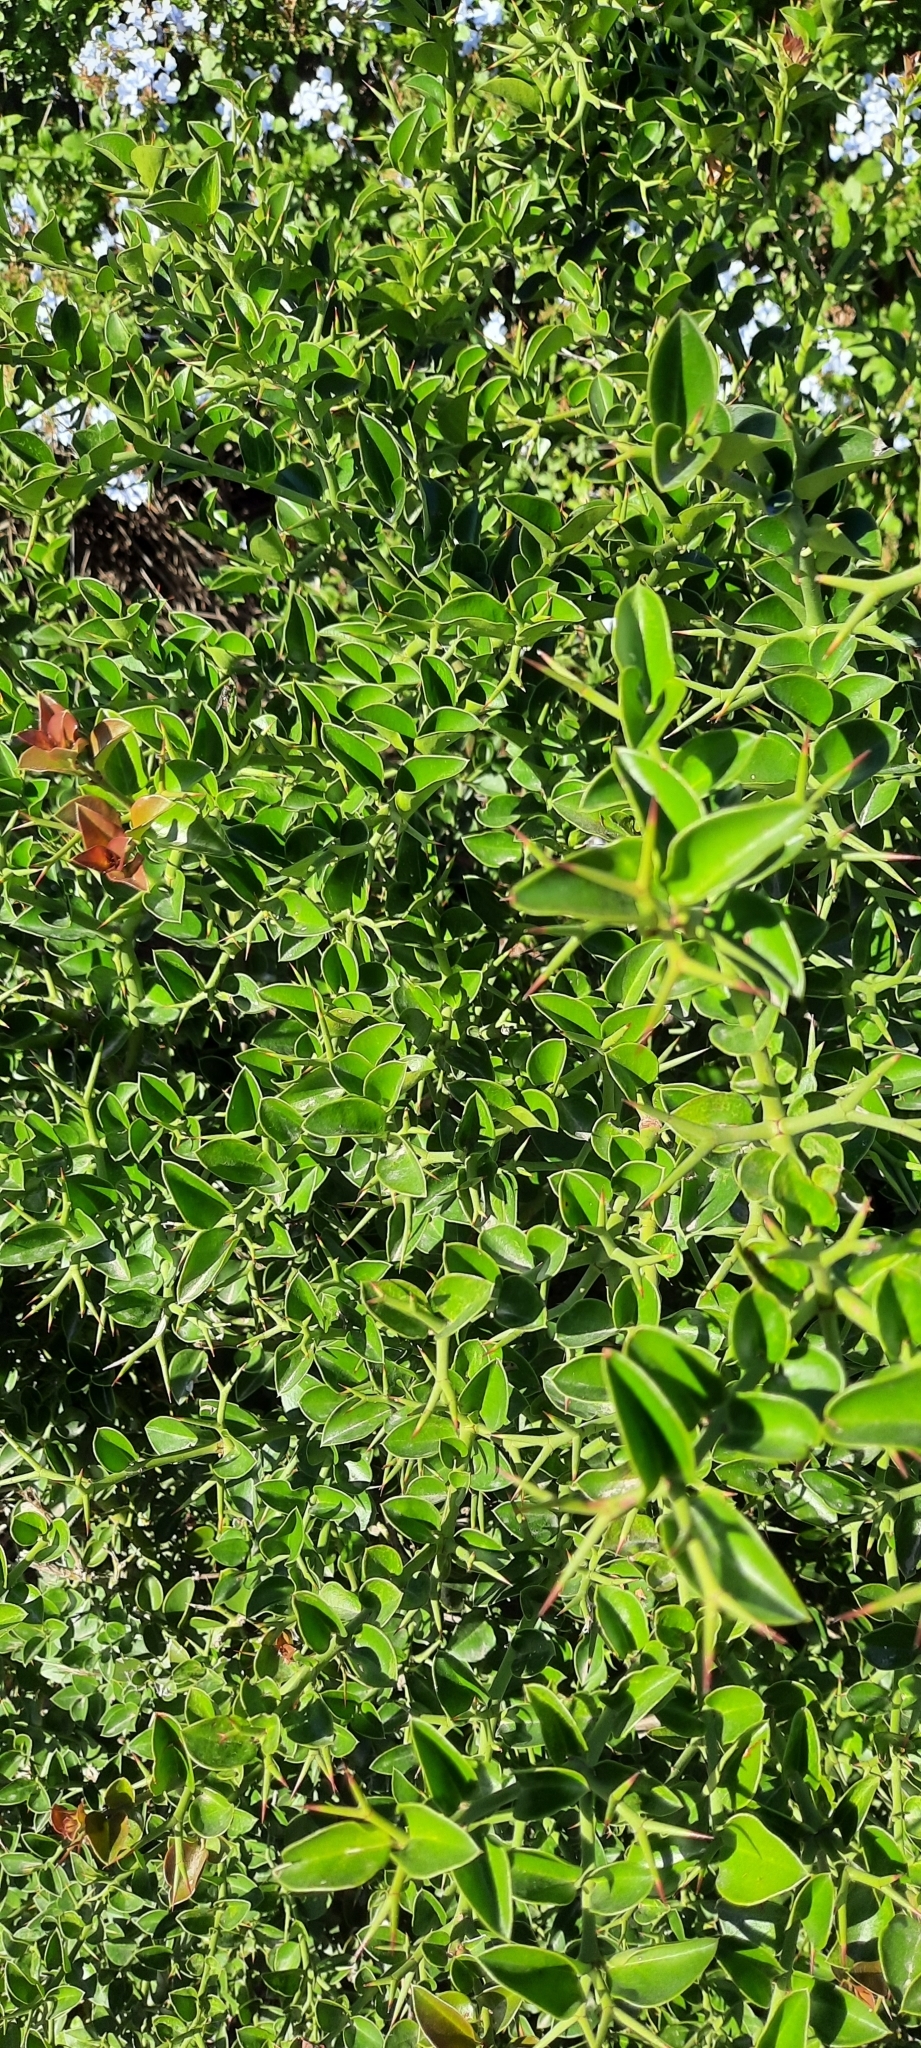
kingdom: Plantae
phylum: Tracheophyta
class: Magnoliopsida
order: Gentianales
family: Apocynaceae
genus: Carissa
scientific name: Carissa macrocarpa
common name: Natal plum
